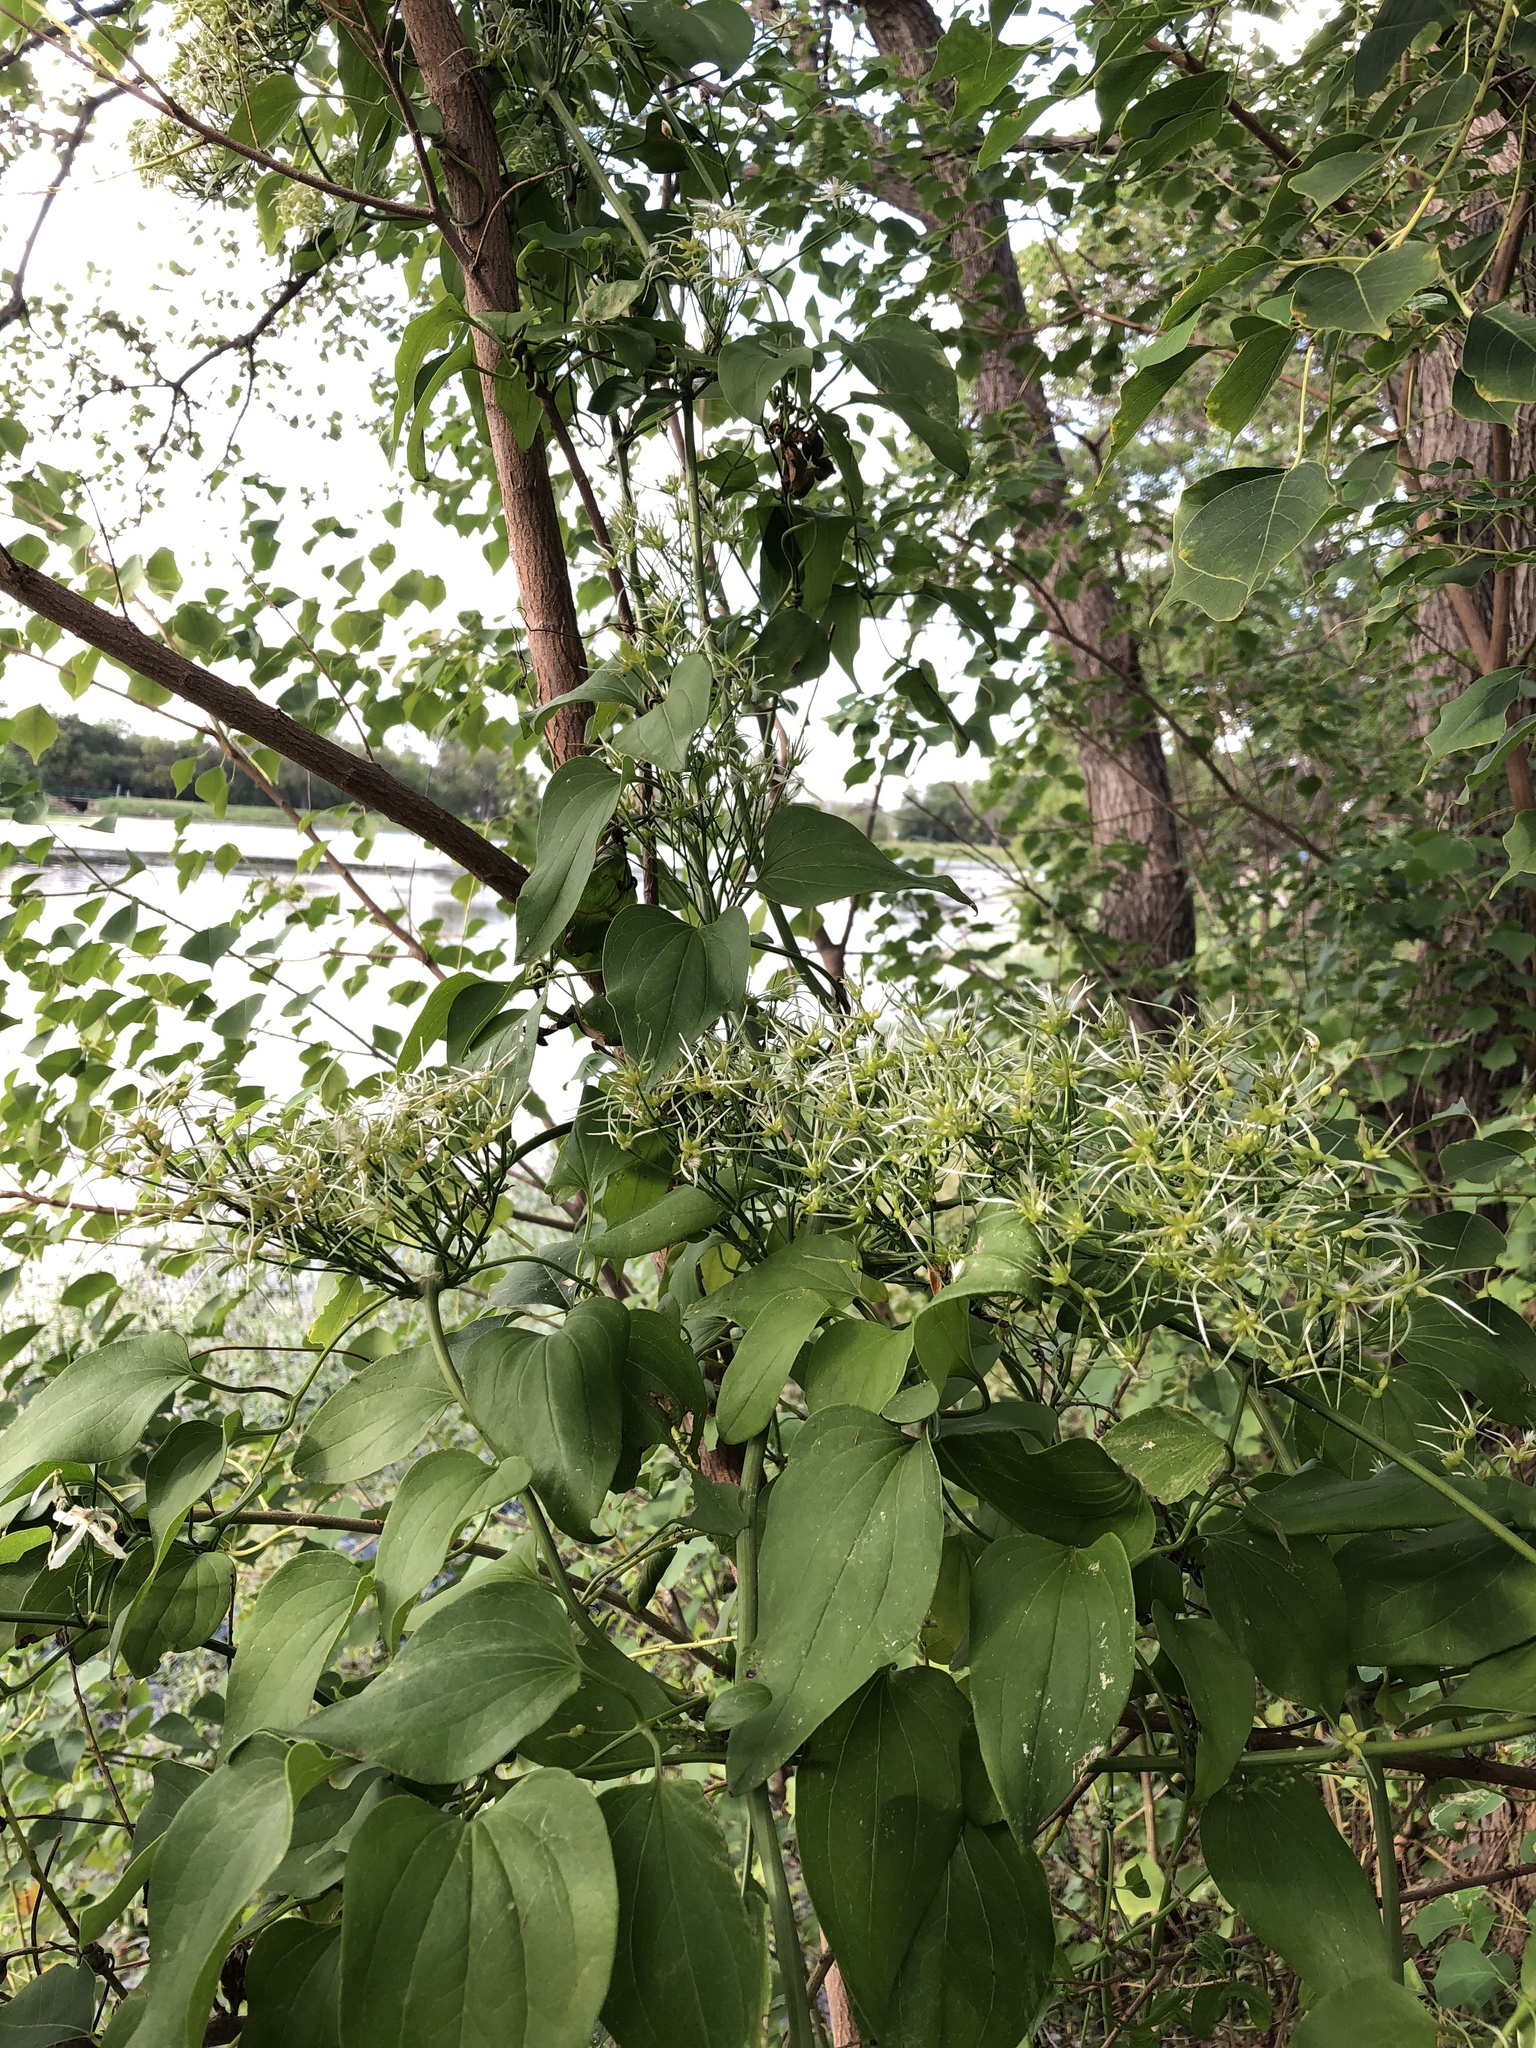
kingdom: Plantae
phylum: Tracheophyta
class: Magnoliopsida
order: Ranunculales
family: Ranunculaceae
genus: Clematis
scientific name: Clematis terniflora
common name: Sweet autumn clematis
